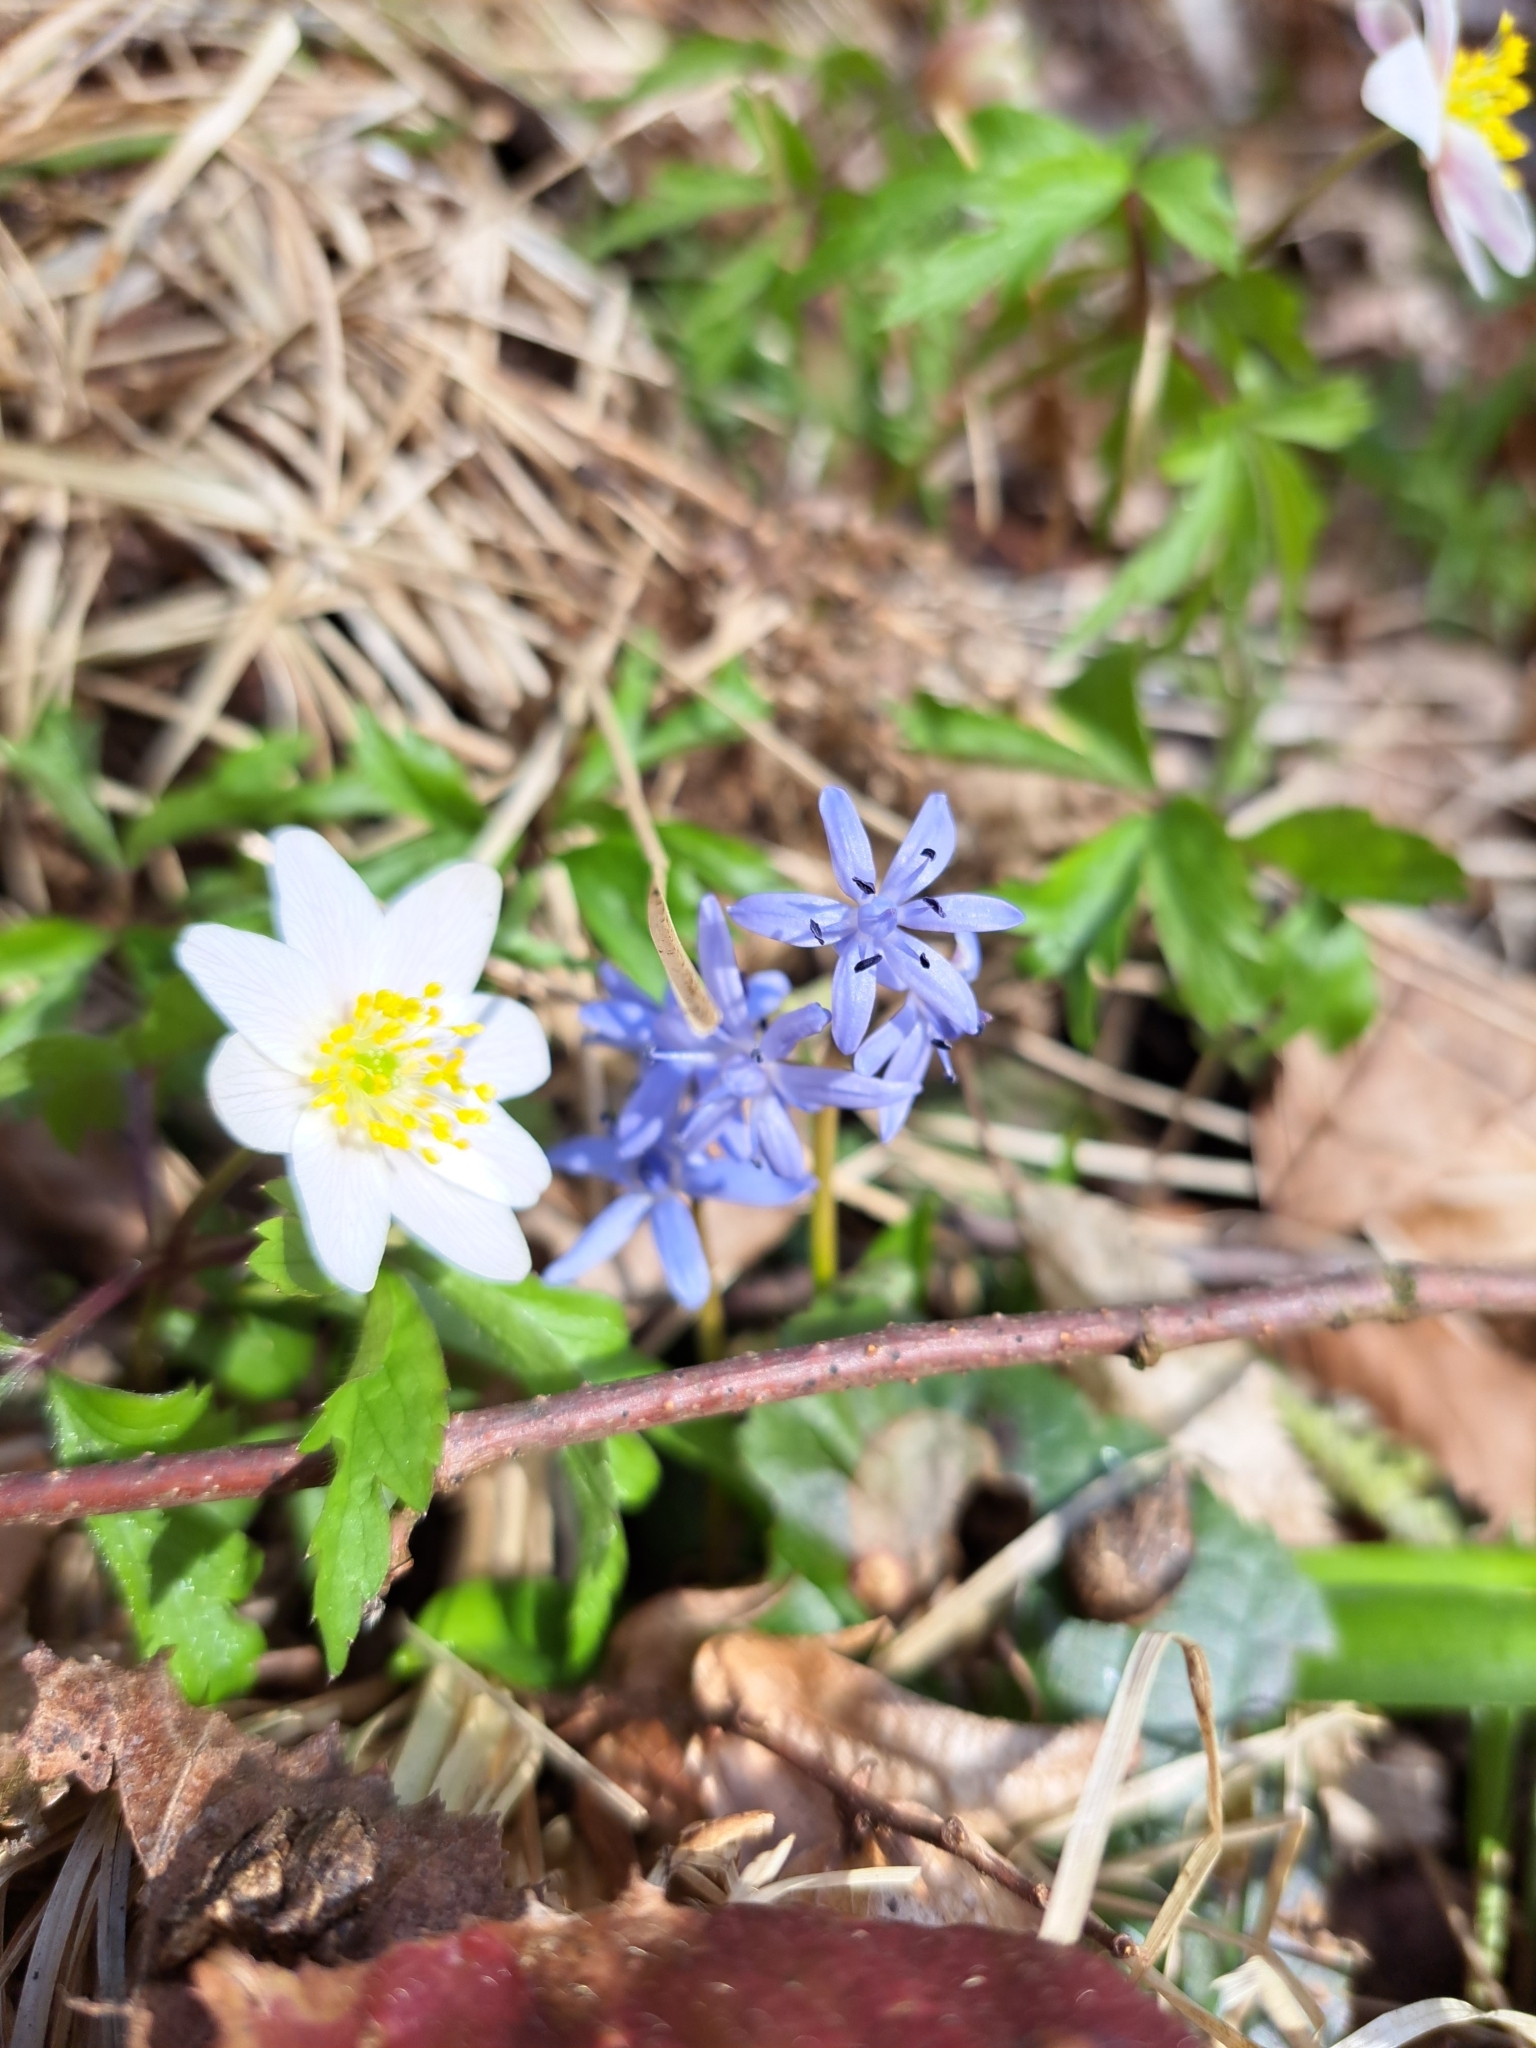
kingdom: Plantae
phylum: Tracheophyta
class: Magnoliopsida
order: Ranunculales
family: Ranunculaceae
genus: Anemone
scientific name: Anemone nemorosa
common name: Wood anemone
